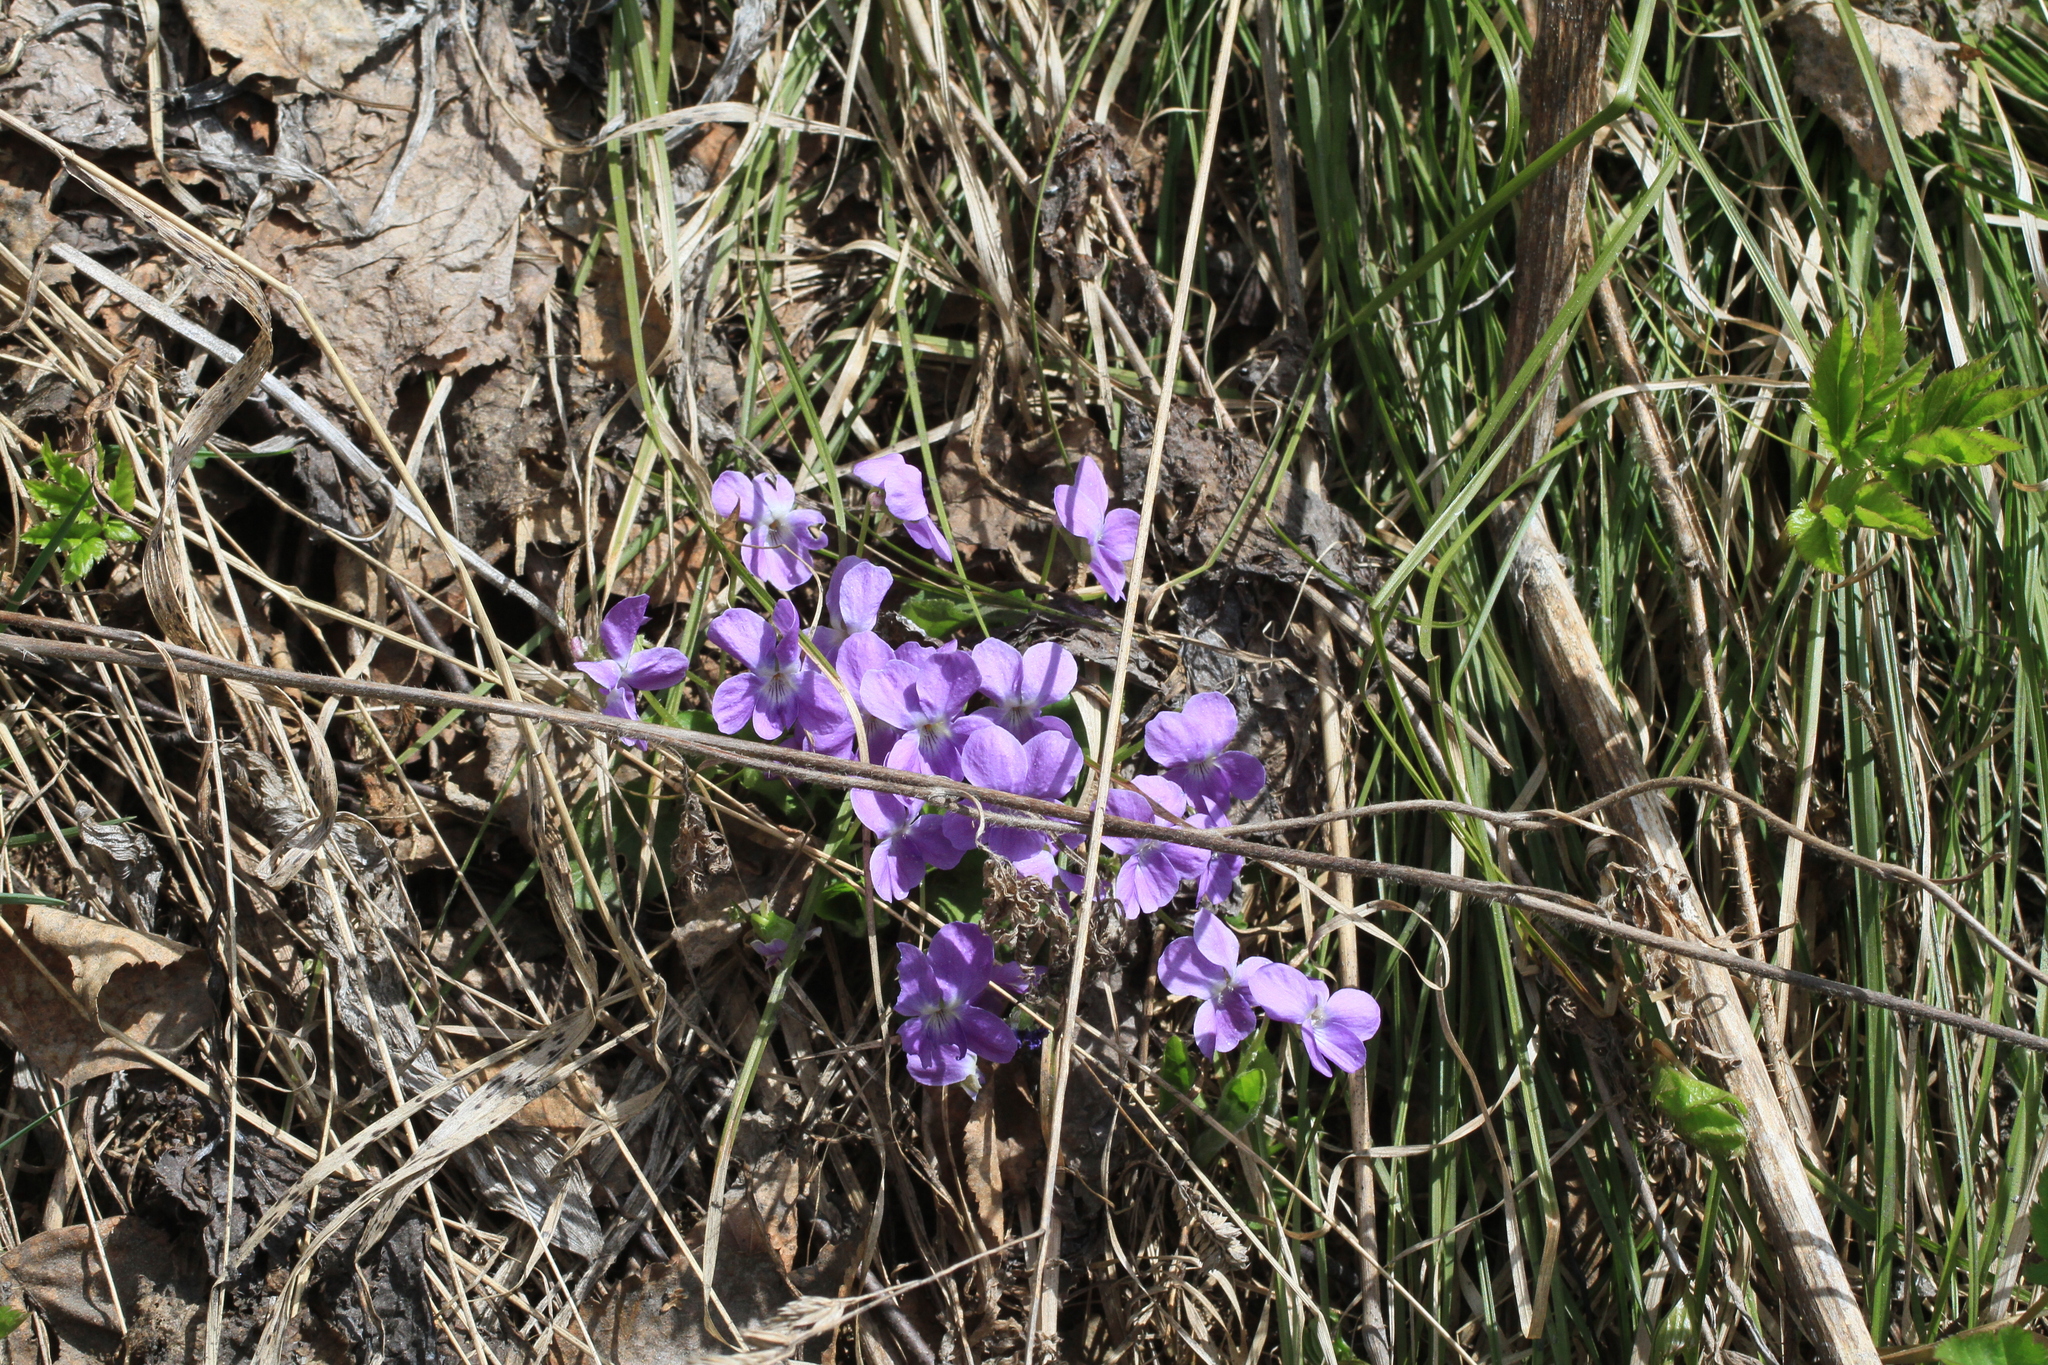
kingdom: Plantae
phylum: Tracheophyta
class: Magnoliopsida
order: Malpighiales
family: Violaceae
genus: Viola
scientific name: Viola hirta
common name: Hairy violet
